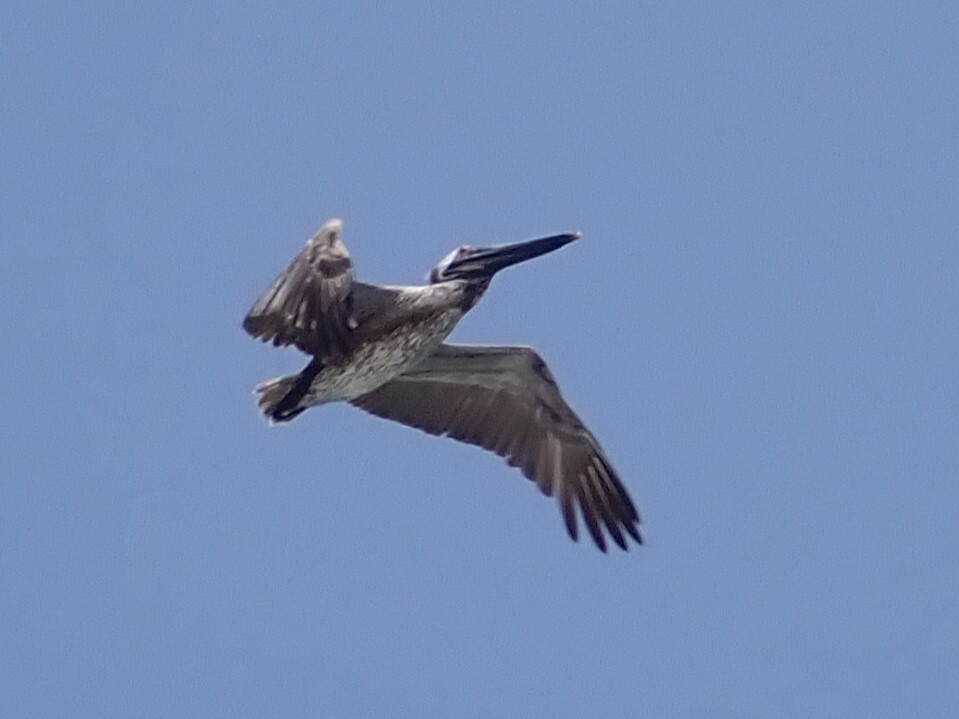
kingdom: Animalia
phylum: Chordata
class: Aves
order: Pelecaniformes
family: Pelecanidae
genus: Pelecanus
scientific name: Pelecanus occidentalis
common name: Brown pelican
